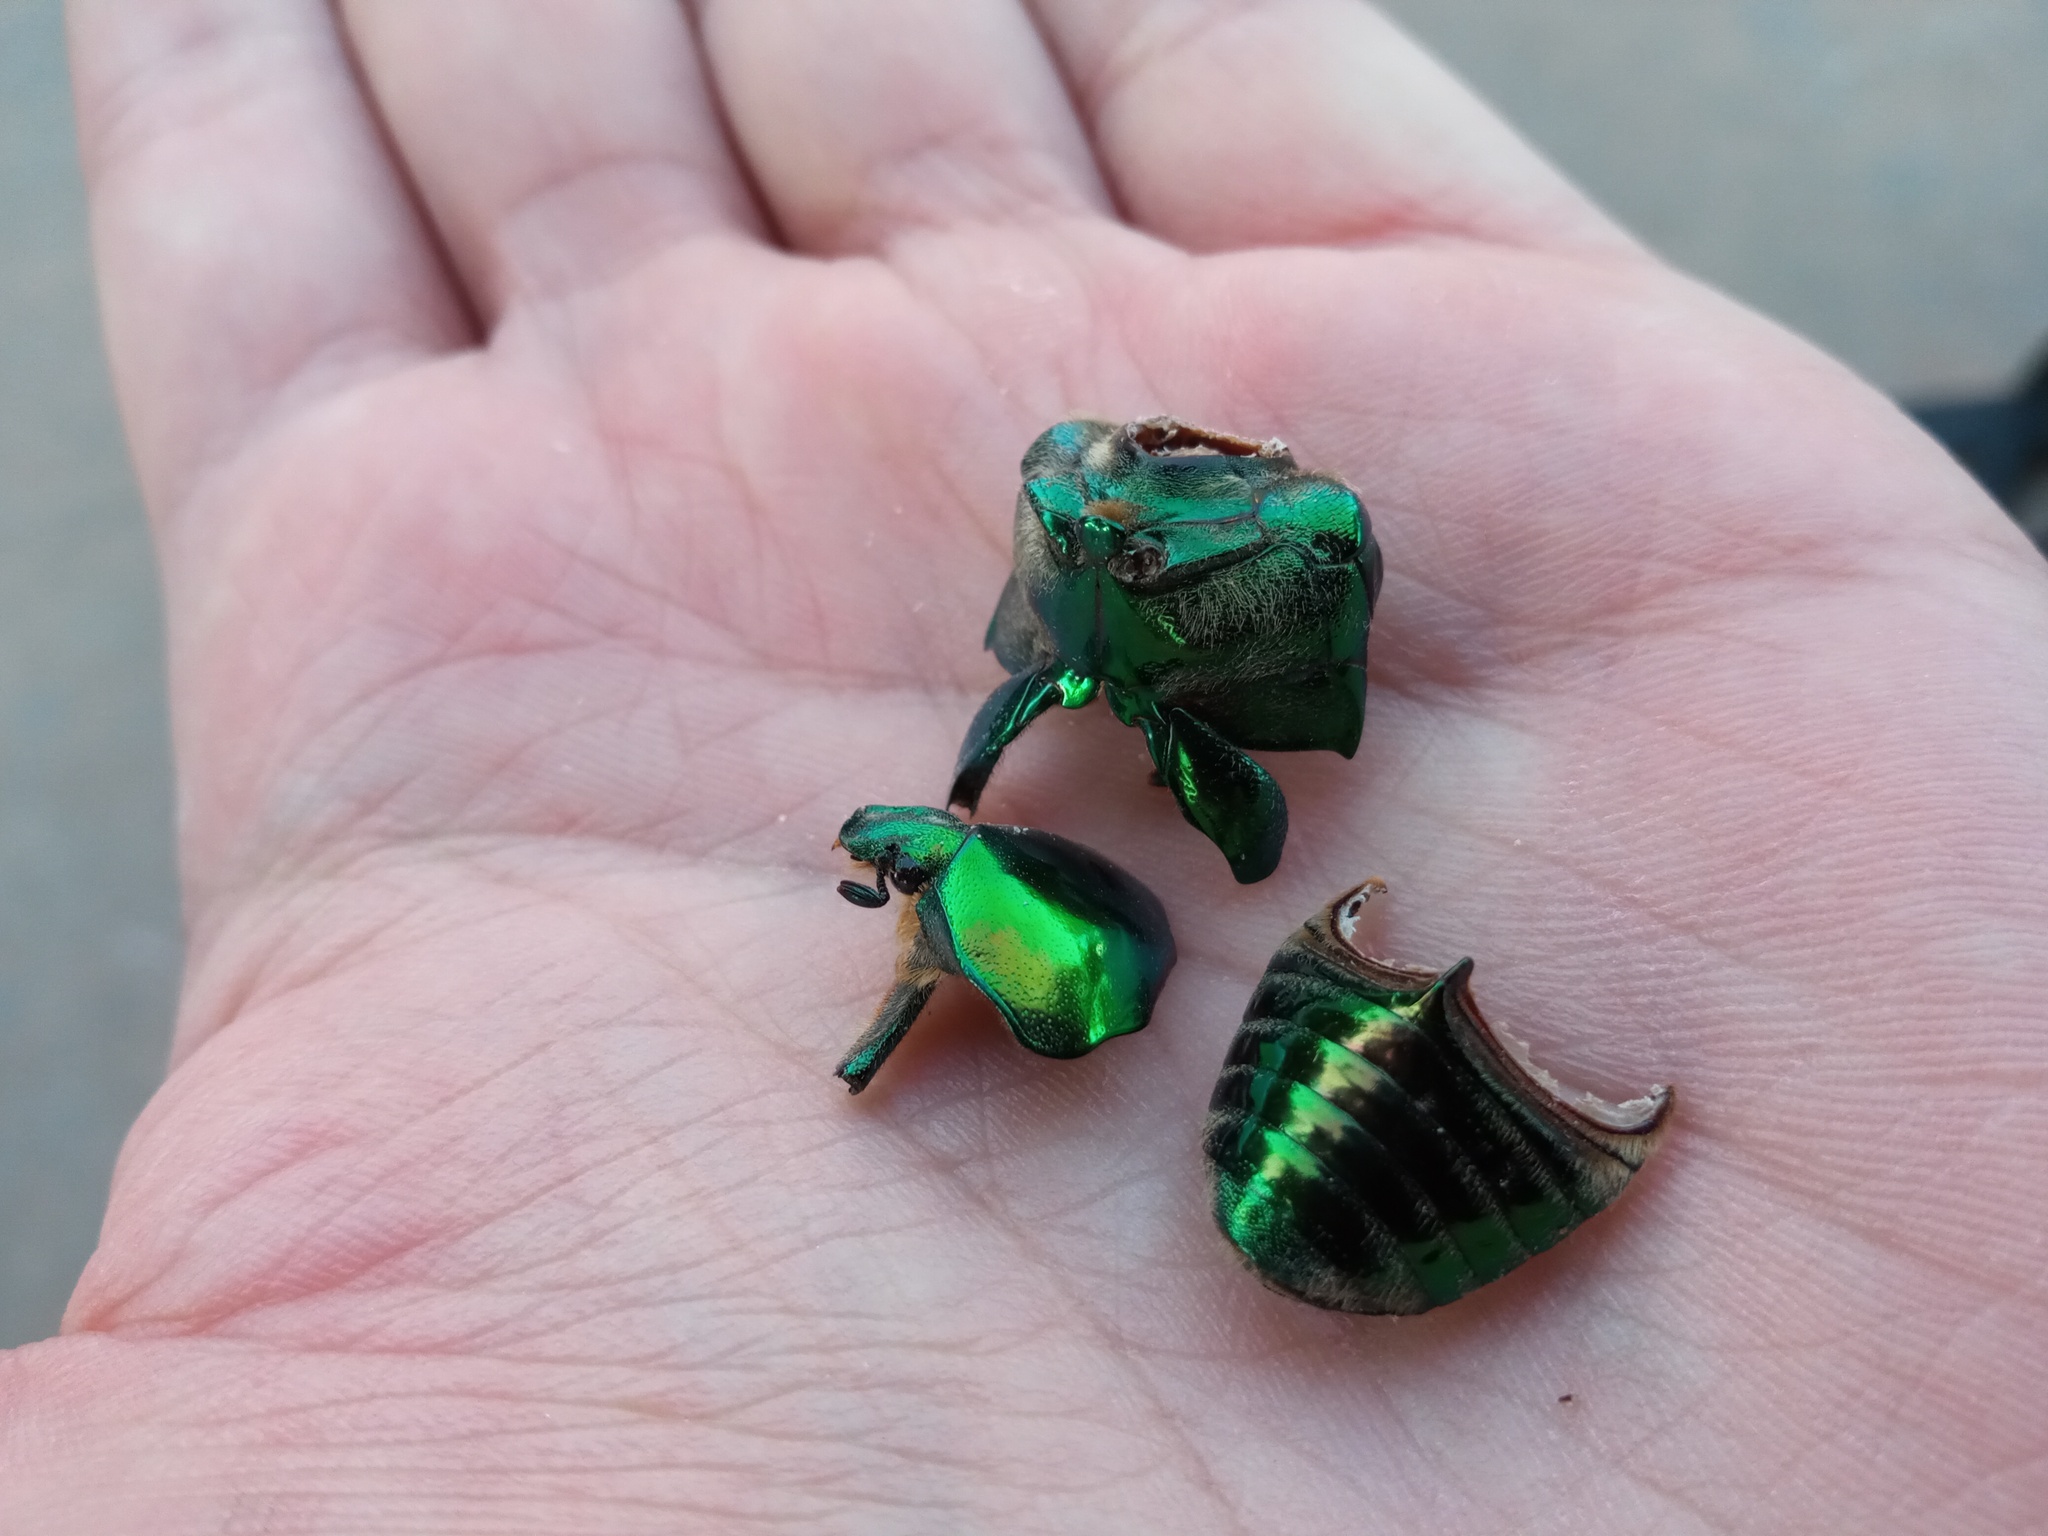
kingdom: Animalia
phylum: Arthropoda
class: Insecta
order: Coleoptera
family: Scarabaeidae
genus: Protaetia
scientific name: Protaetia speciosissima
